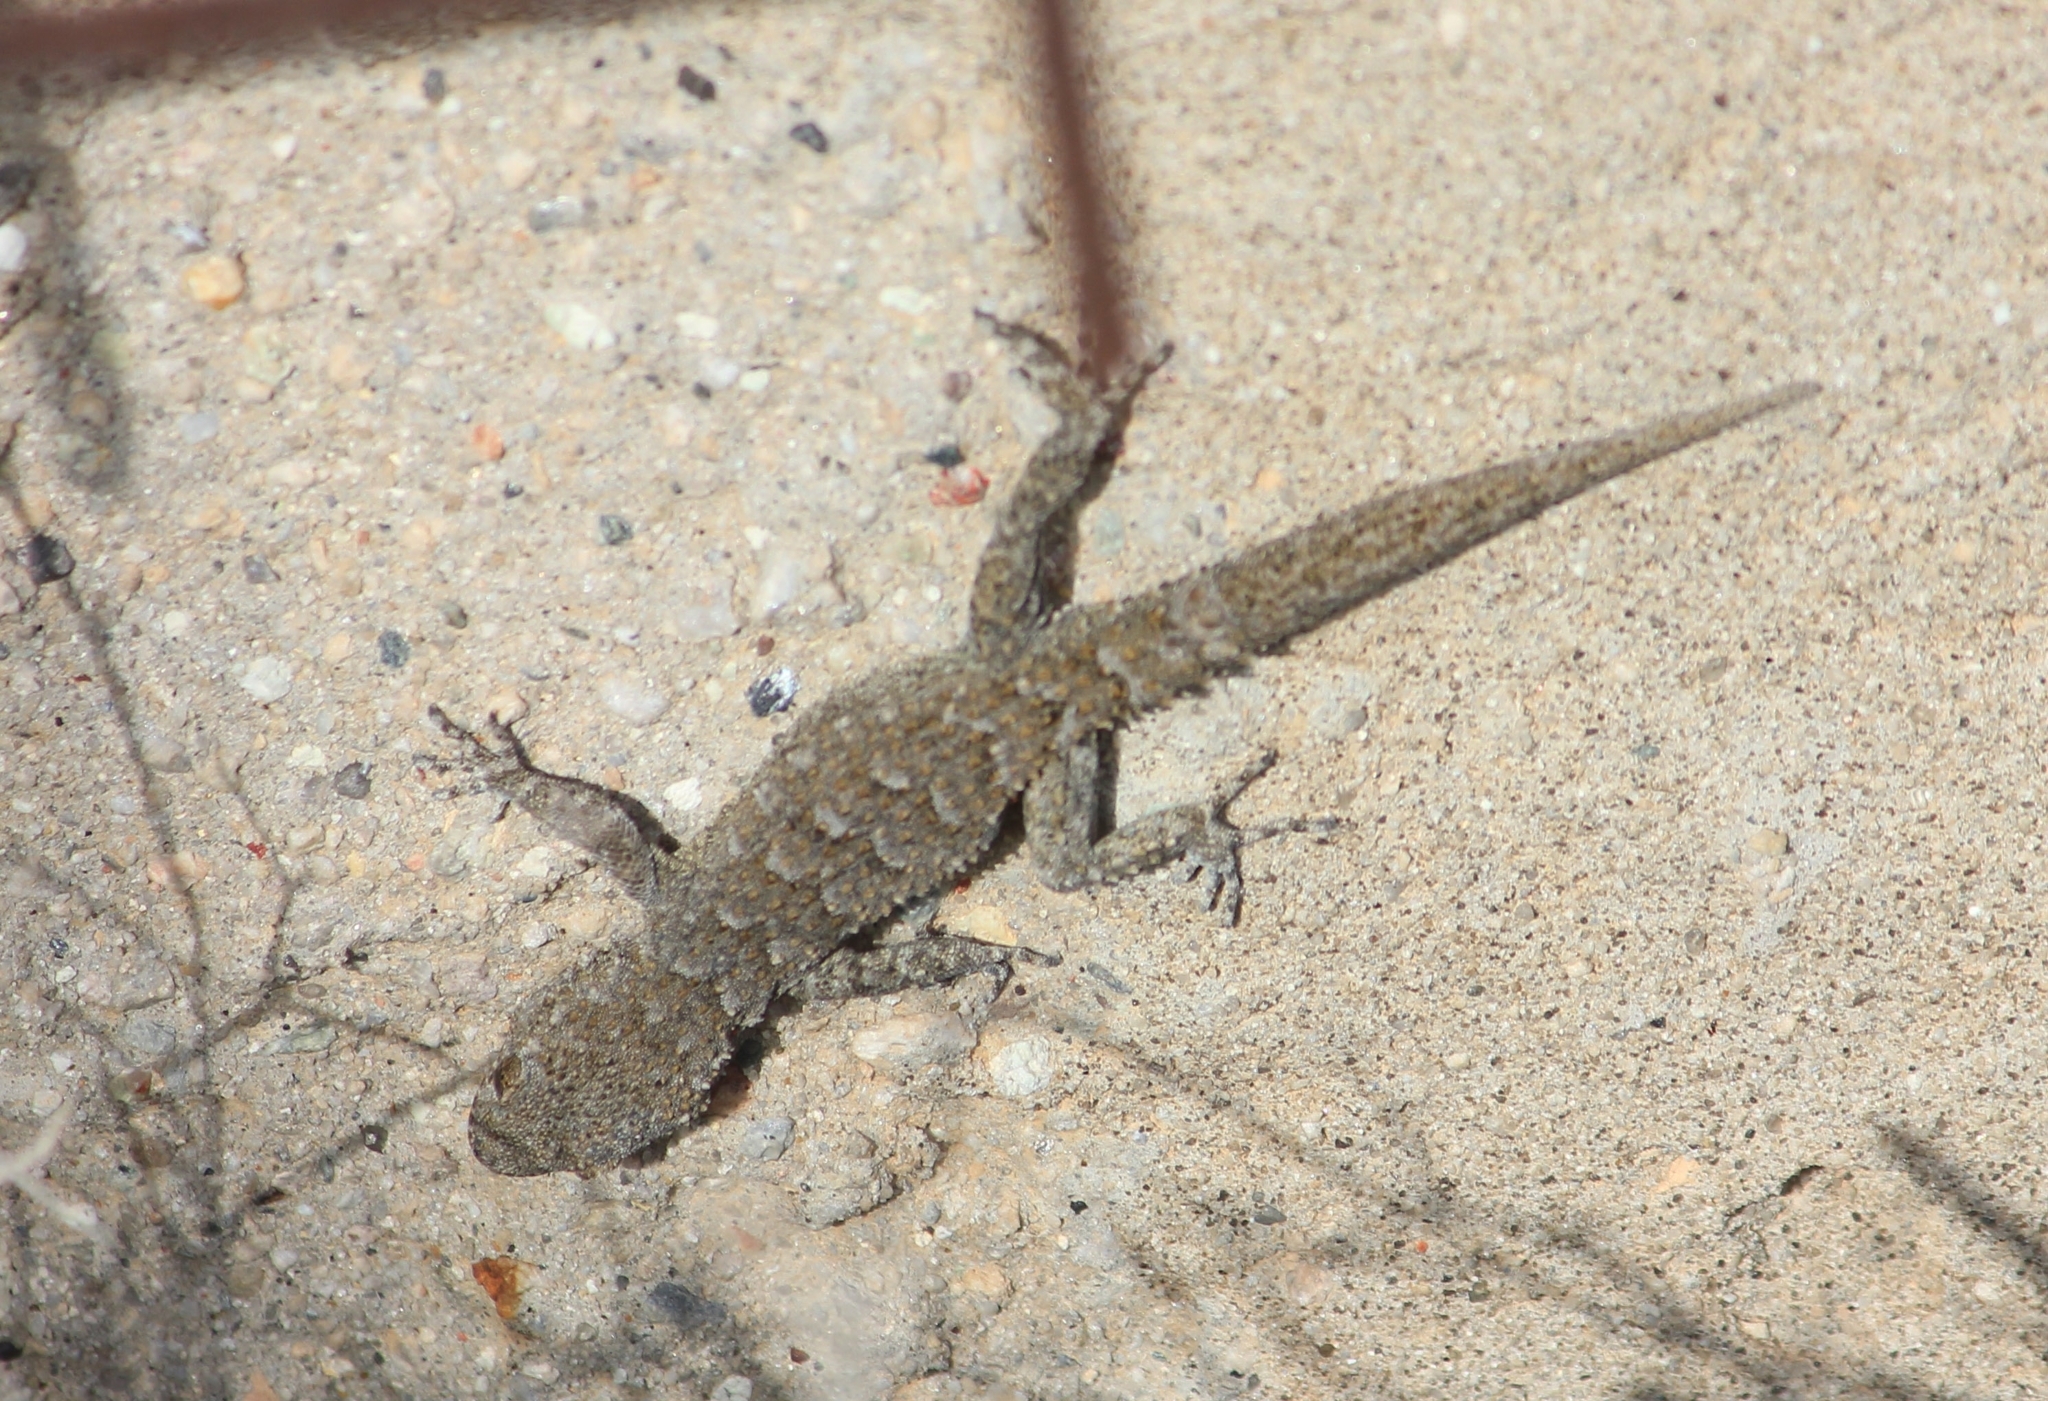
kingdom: Animalia
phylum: Chordata
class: Squamata
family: Gekkonidae
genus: Mediodactylus
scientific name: Mediodactylus kotschyi
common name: Kotschy's gecko
